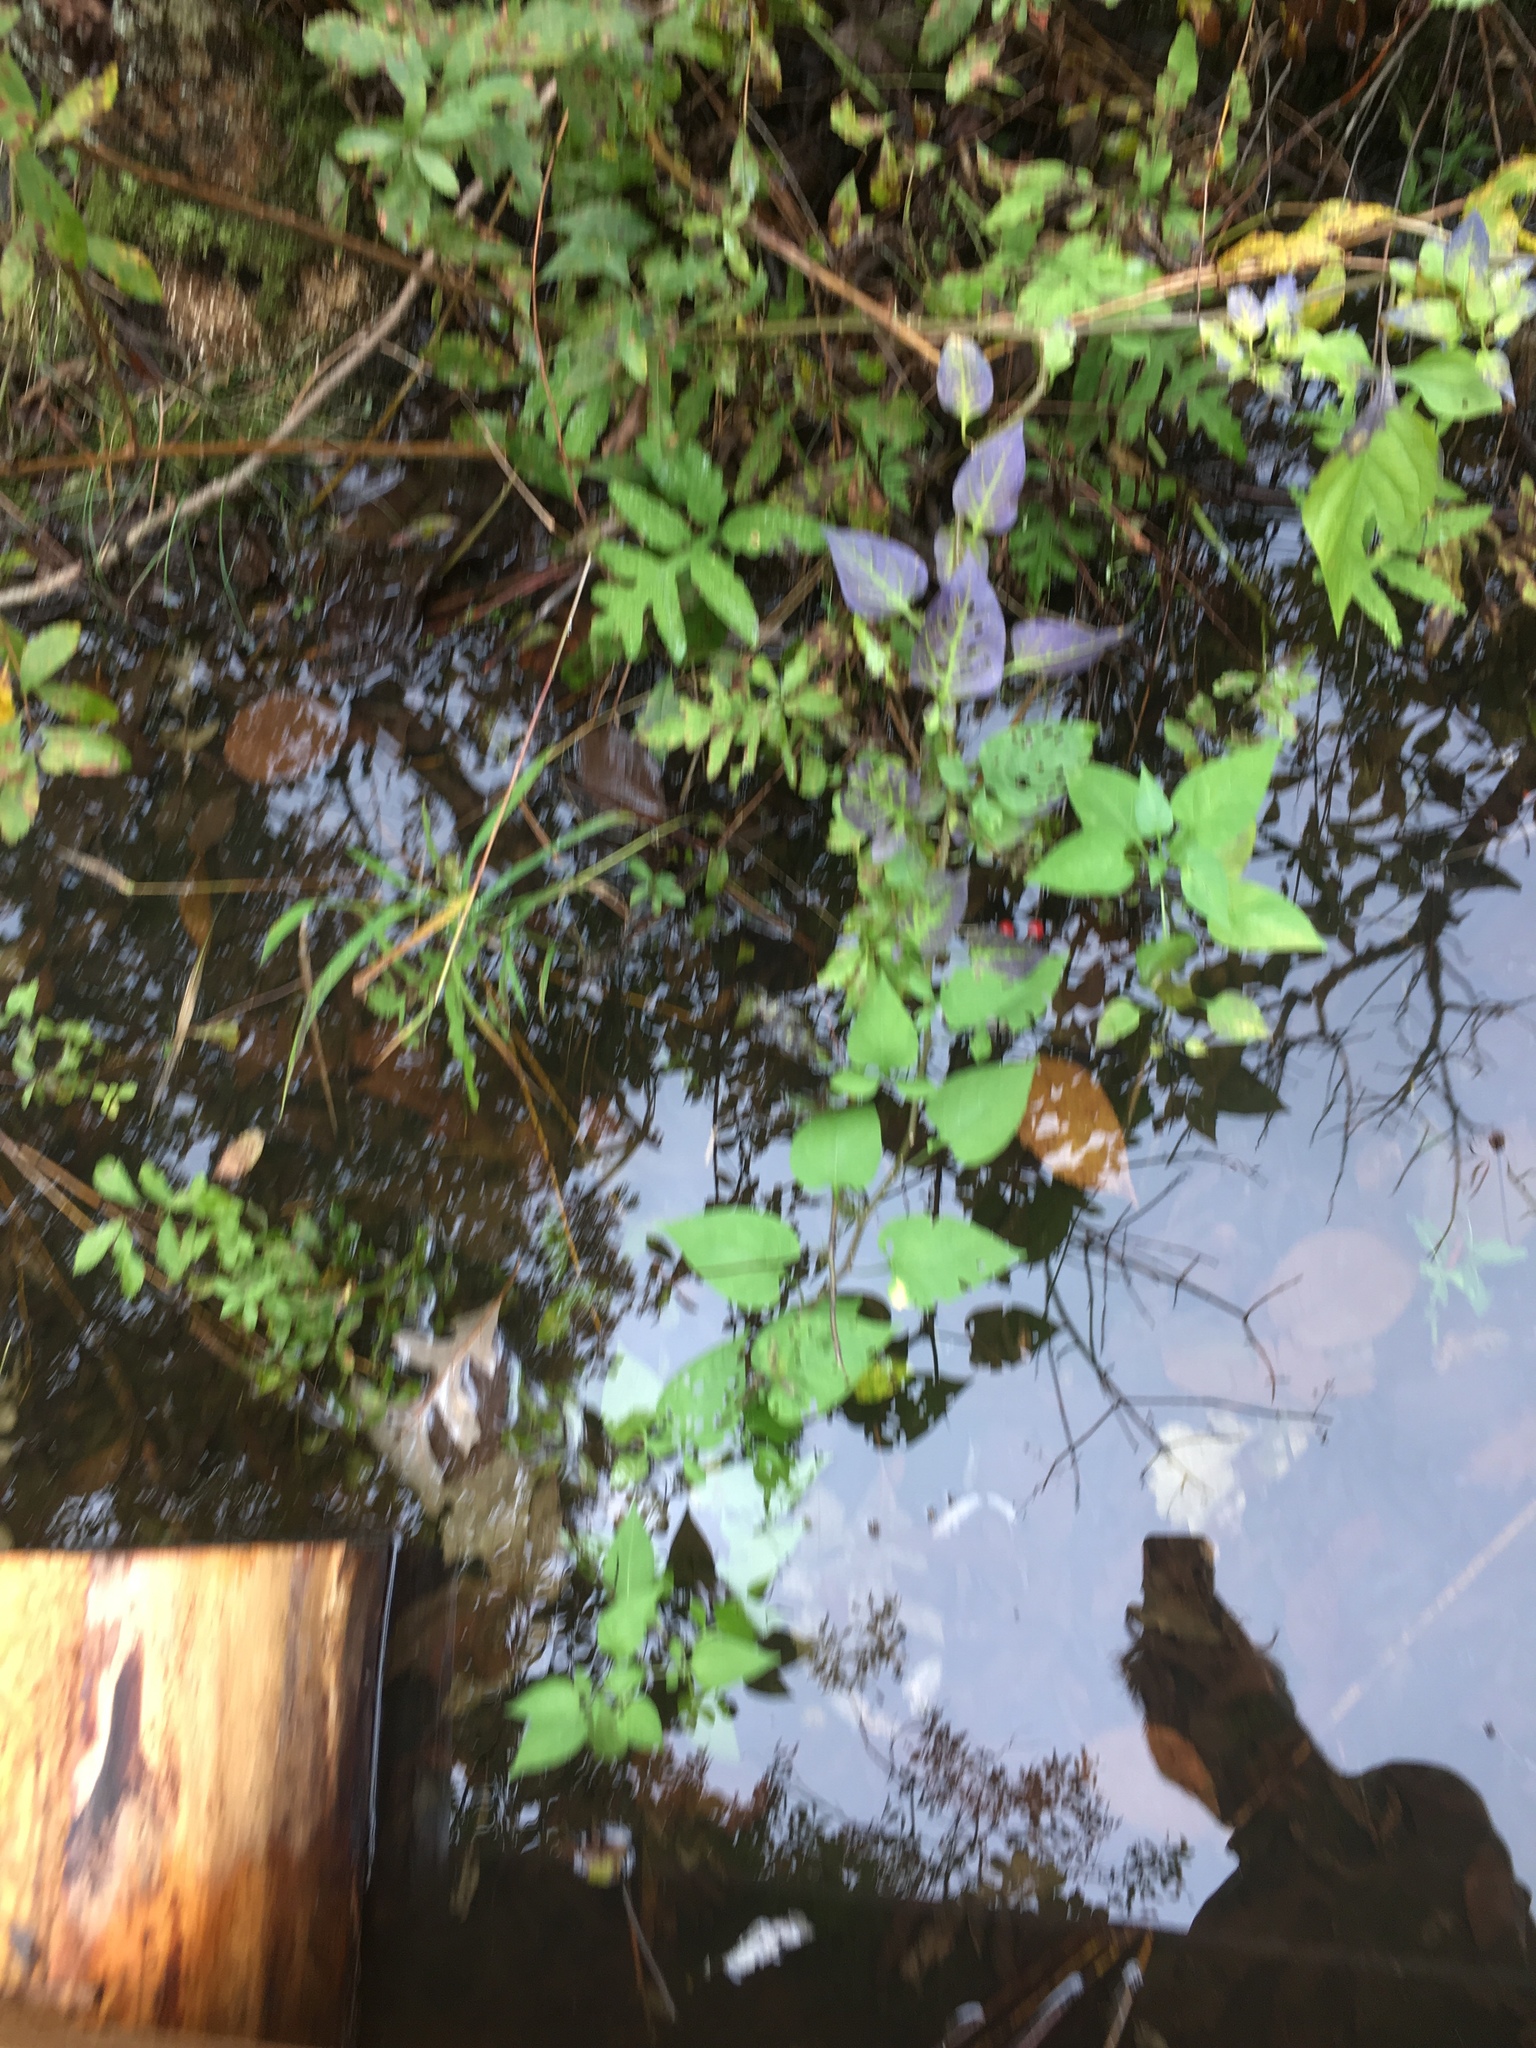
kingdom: Plantae
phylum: Tracheophyta
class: Magnoliopsida
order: Solanales
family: Solanaceae
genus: Solanum
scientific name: Solanum dulcamara
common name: Climbing nightshade
